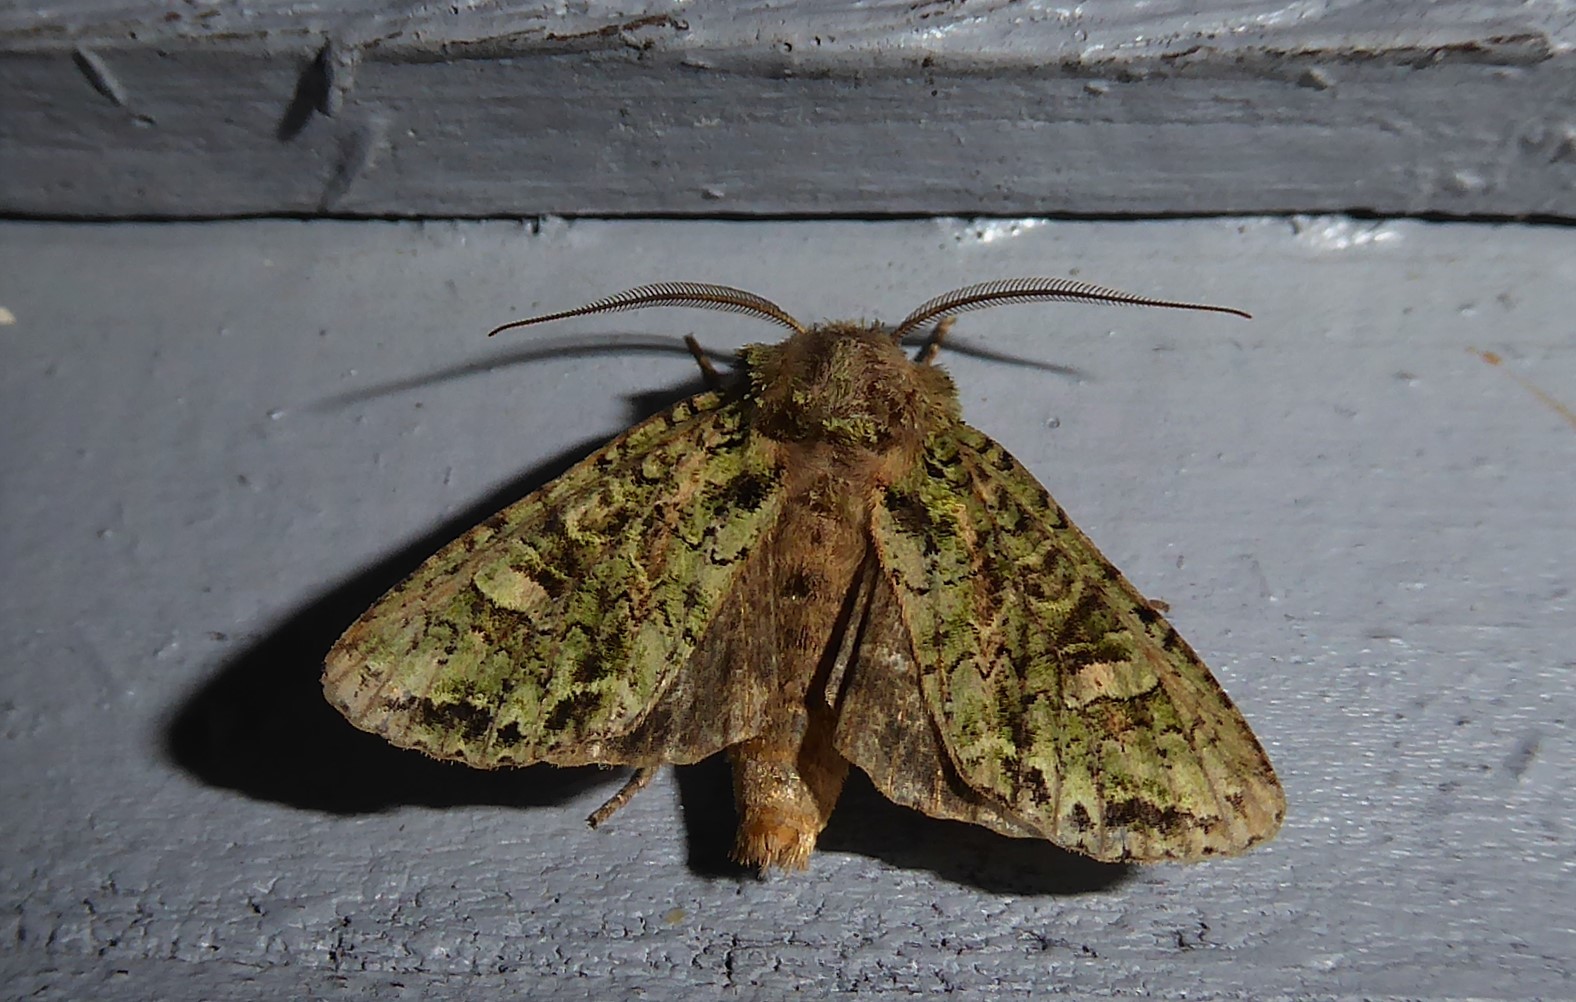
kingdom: Animalia
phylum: Arthropoda
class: Insecta
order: Lepidoptera
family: Noctuidae
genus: Ichneutica
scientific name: Ichneutica
